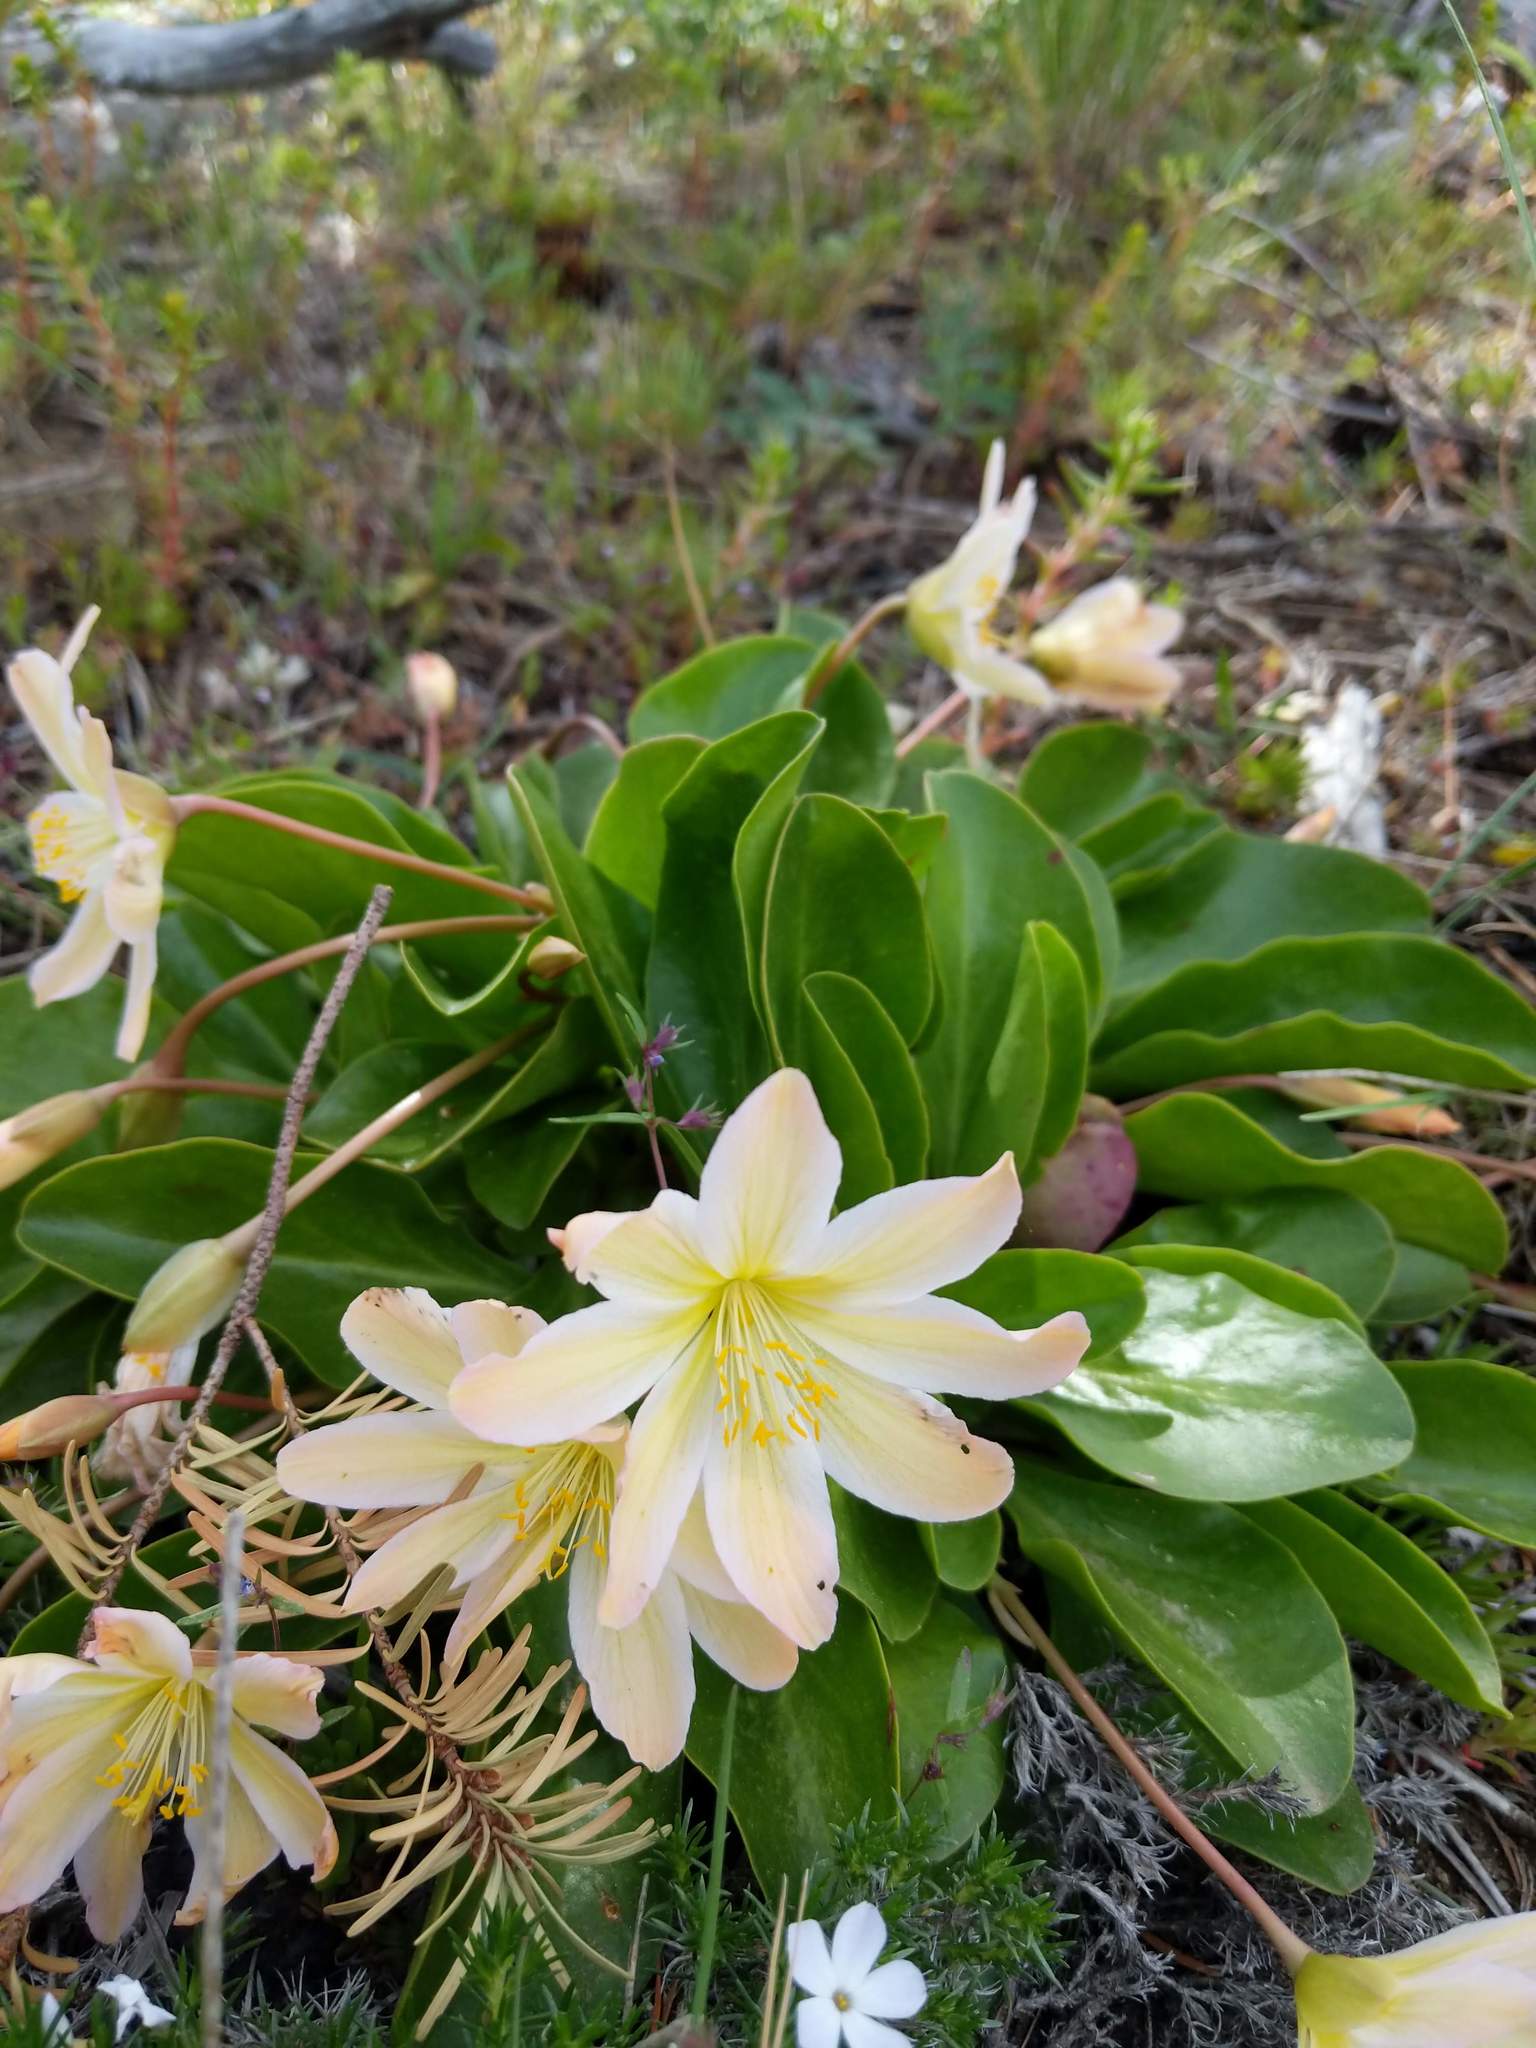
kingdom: Plantae
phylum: Tracheophyta
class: Magnoliopsida
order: Caryophyllales
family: Montiaceae
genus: Lewisiopsis
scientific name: Lewisiopsis tweedyi
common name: Tweedy's pussypaws
